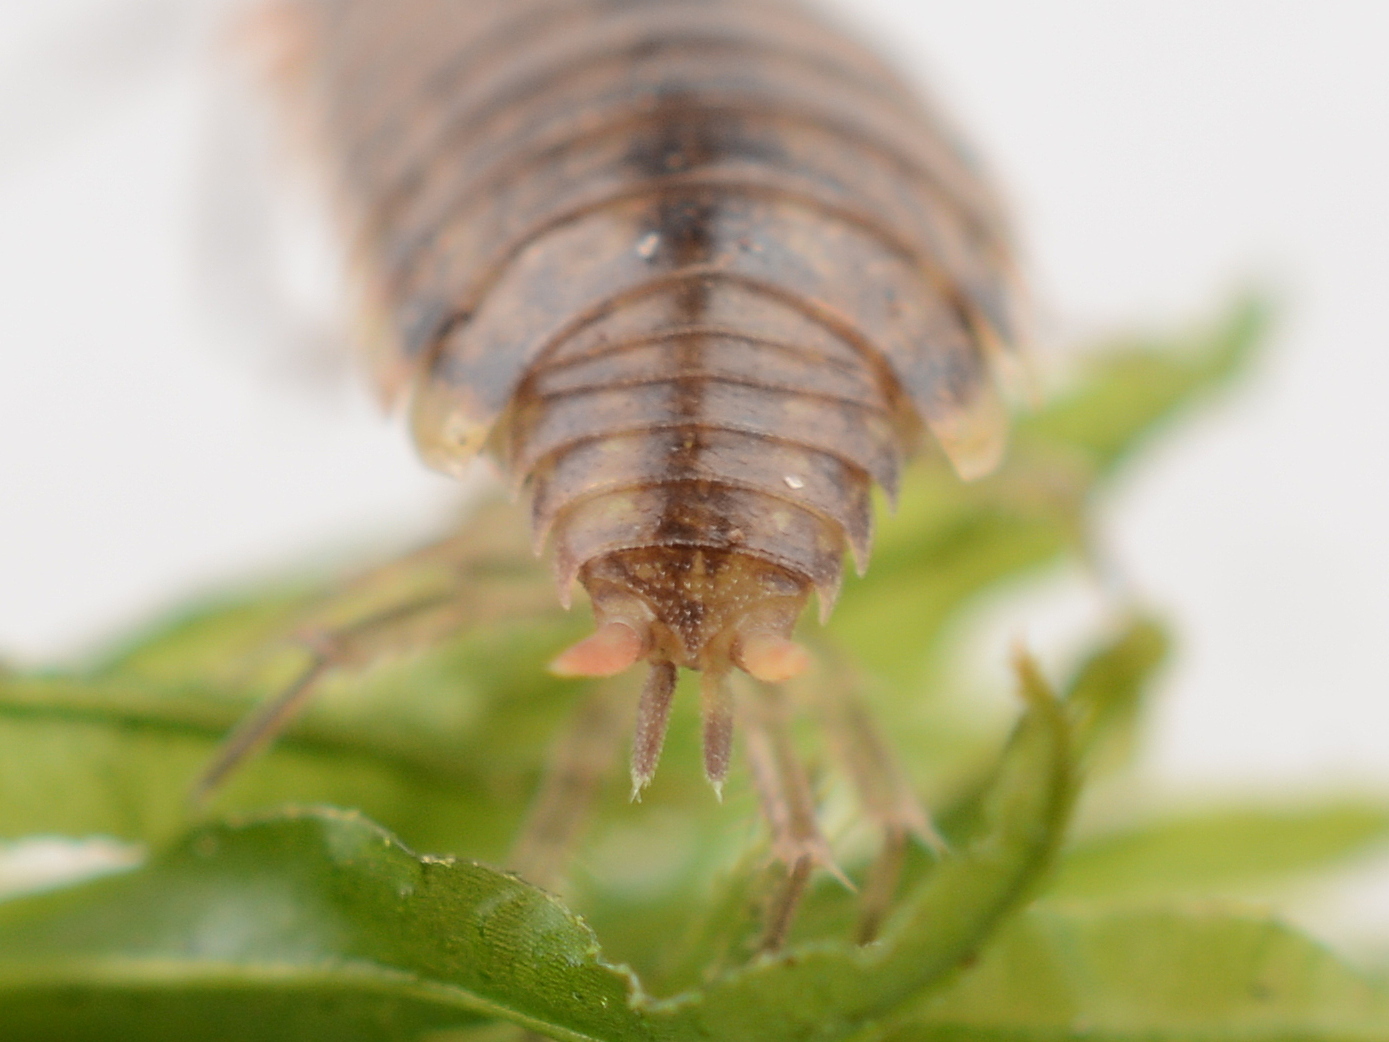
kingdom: Animalia
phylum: Arthropoda
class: Malacostraca
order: Isopoda
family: Philosciidae
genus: Philoscia
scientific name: Philoscia muscorum
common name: Common striped woodlouse
